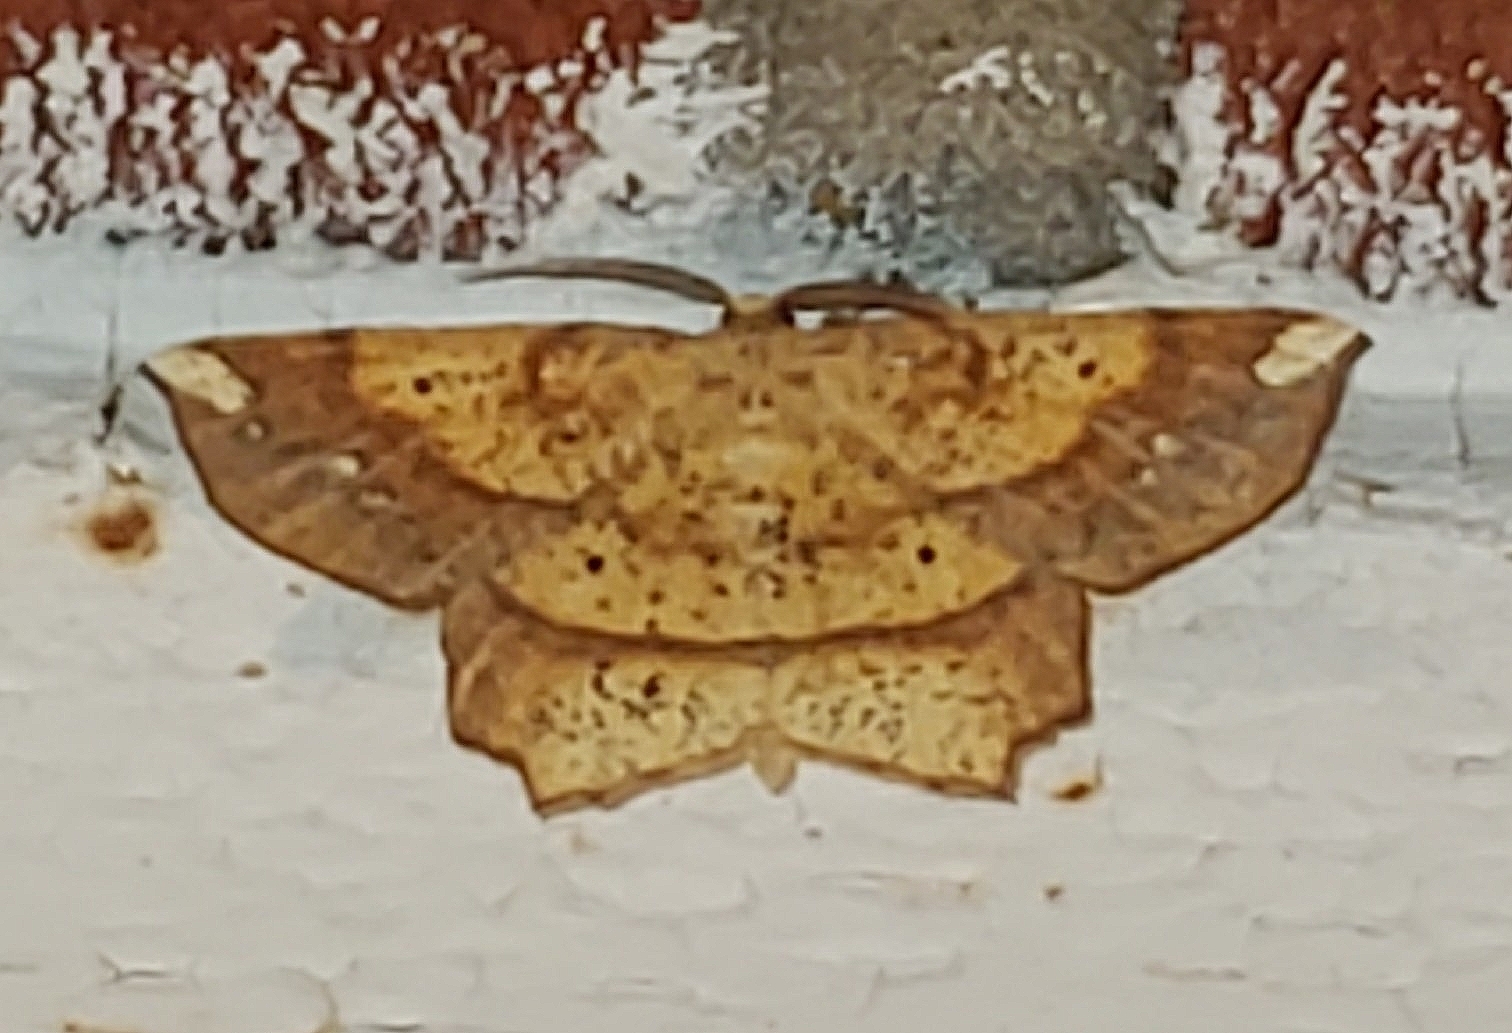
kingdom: Animalia
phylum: Arthropoda
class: Insecta
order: Lepidoptera
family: Geometridae
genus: Euchlaena
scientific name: Euchlaena amoenaria
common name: Deep yellow euchlaena
